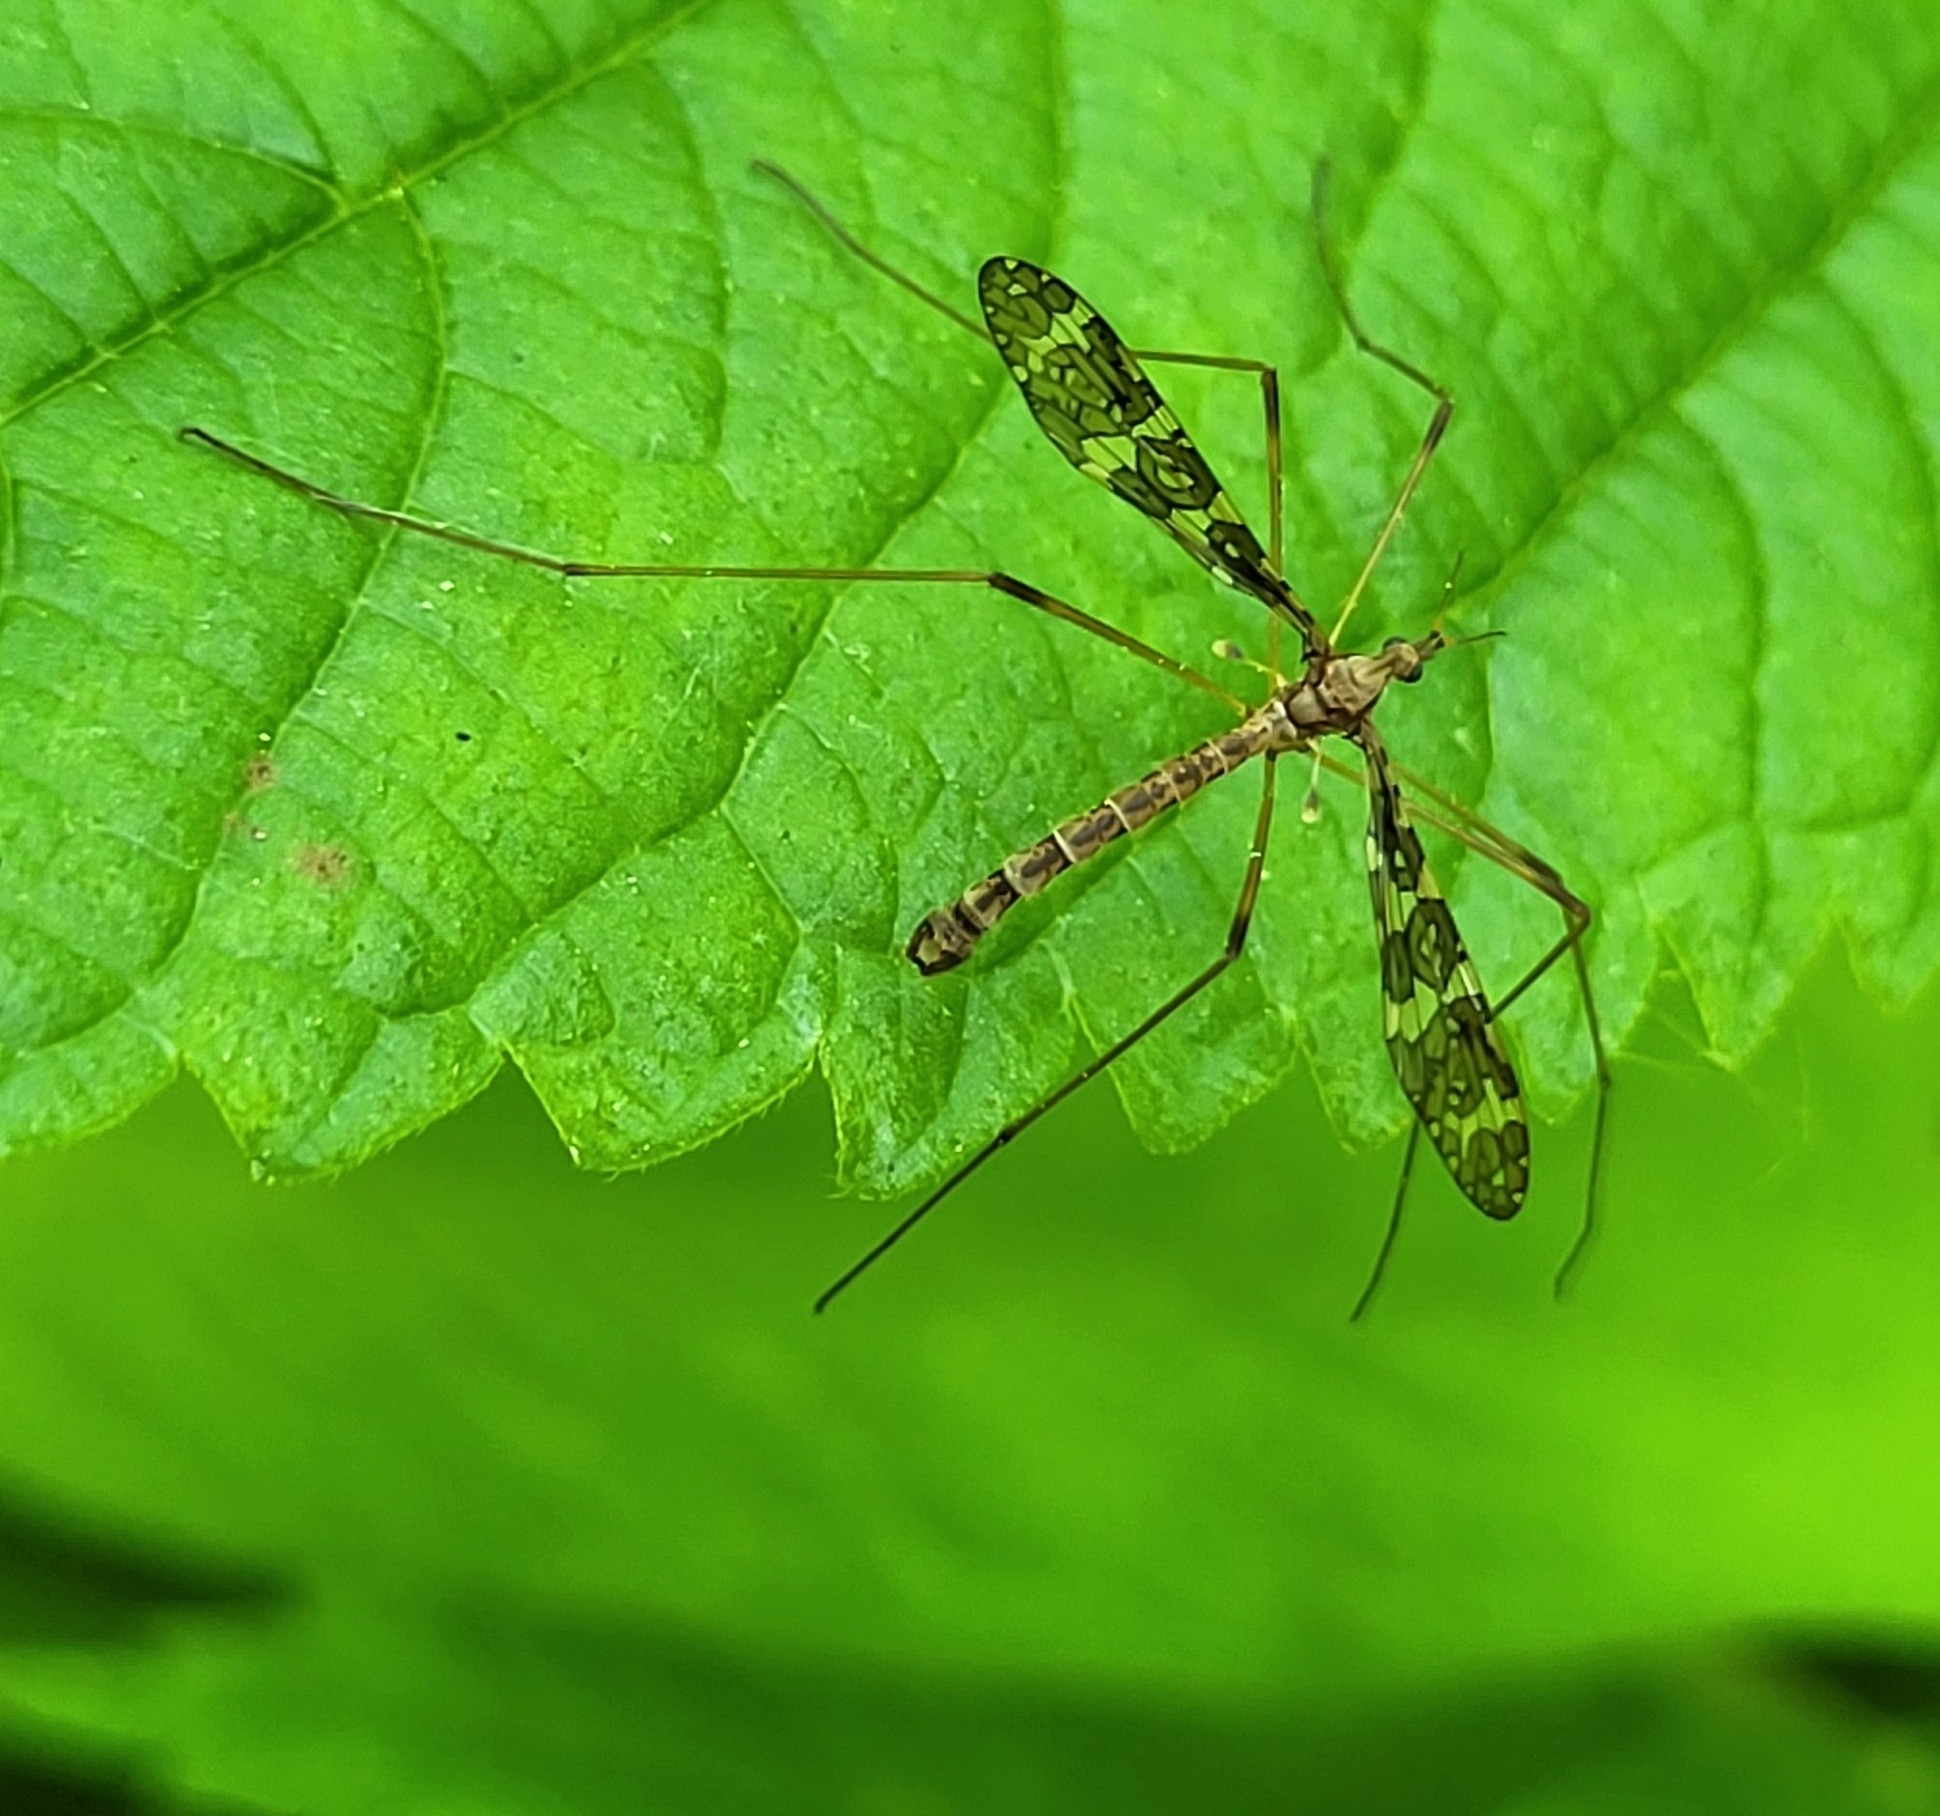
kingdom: Animalia
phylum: Arthropoda
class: Insecta
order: Diptera
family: Limoniidae
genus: Epiphragma
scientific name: Epiphragma fasciapenne
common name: Band-winged crane fly
